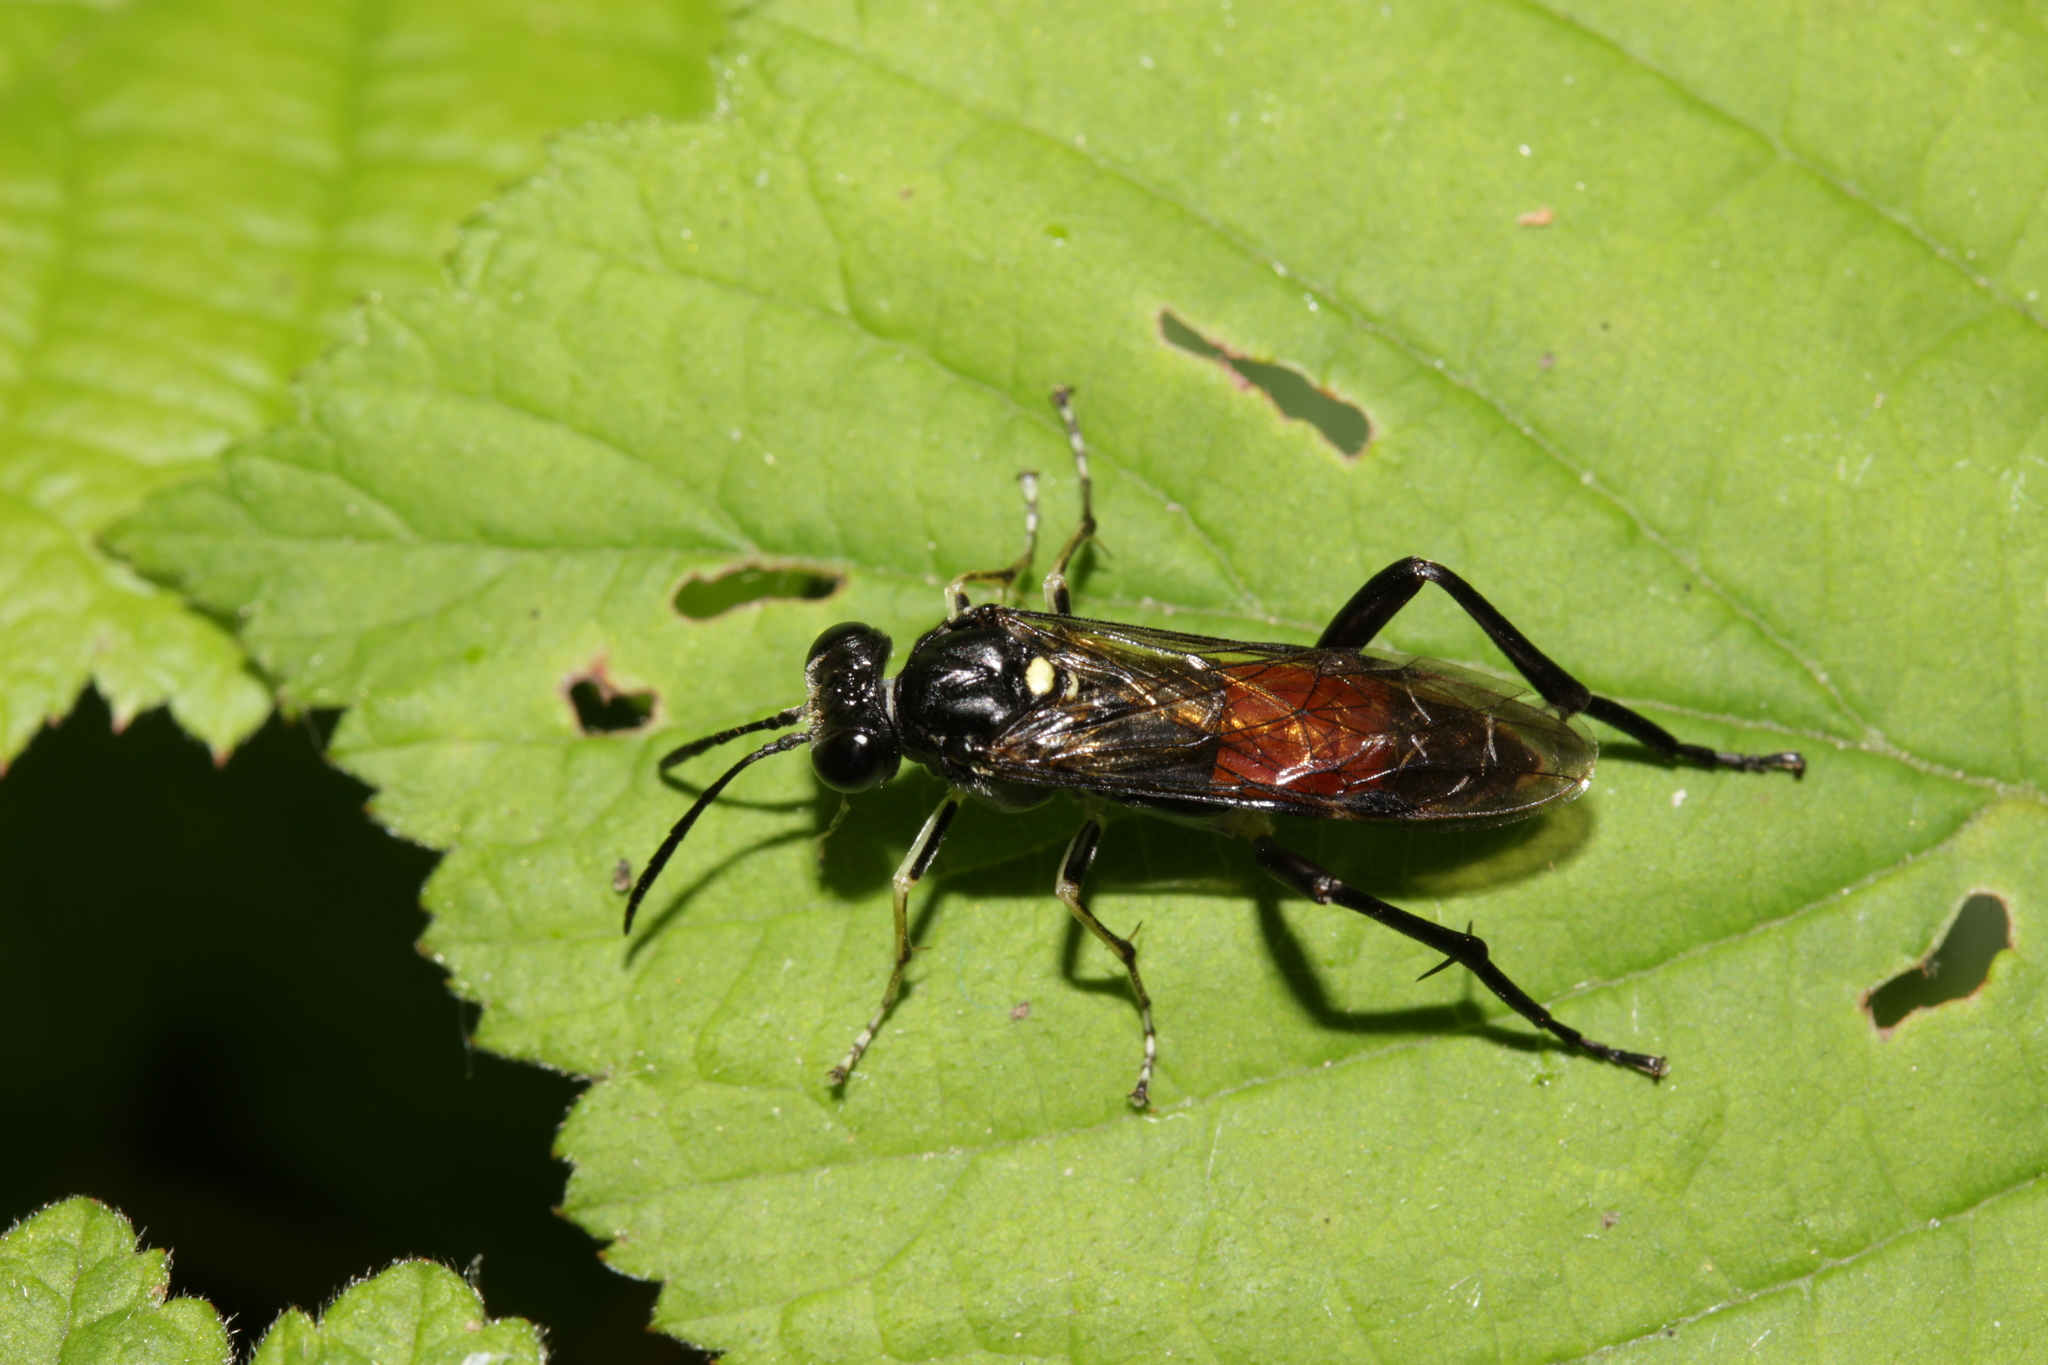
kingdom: Animalia
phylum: Arthropoda
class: Insecta
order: Hymenoptera
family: Tenthredinidae
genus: Macrophya
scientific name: Macrophya militaris
